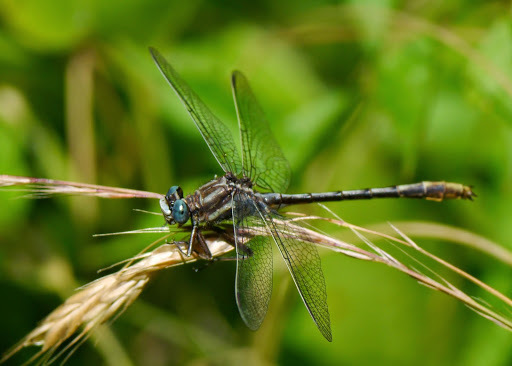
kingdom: Animalia
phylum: Arthropoda
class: Insecta
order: Odonata
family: Gomphidae
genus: Phanogomphus
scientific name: Phanogomphus exilis
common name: Lancet clubtail
